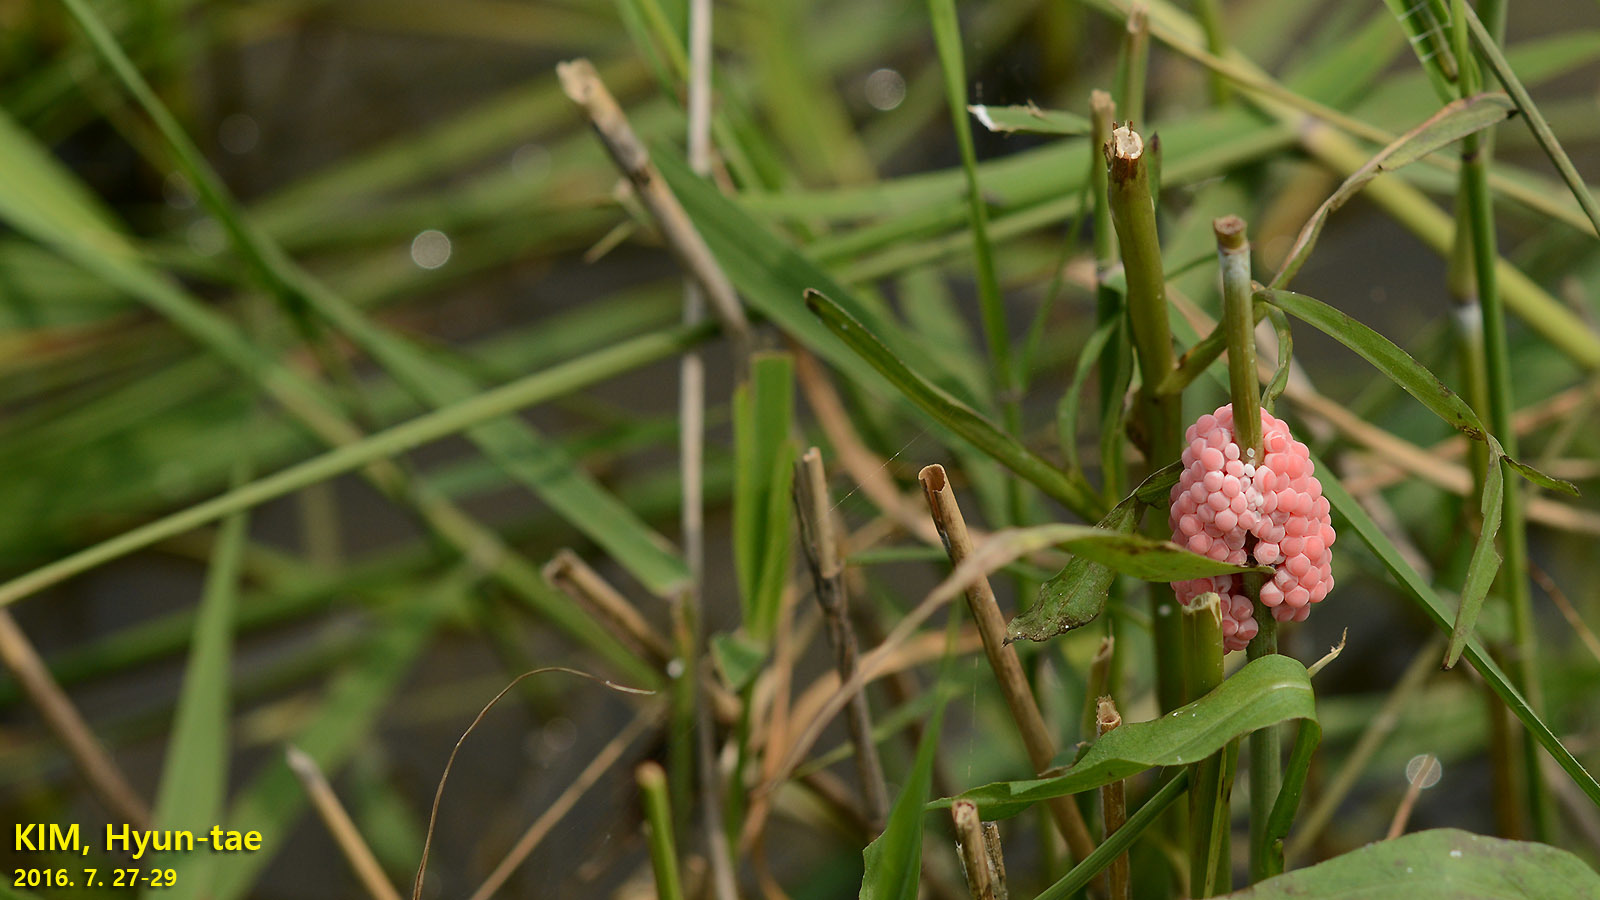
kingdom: Animalia
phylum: Mollusca
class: Gastropoda
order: Architaenioglossa
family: Ampullariidae
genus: Pomacea
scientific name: Pomacea canaliculata
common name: Channeled applesnail
